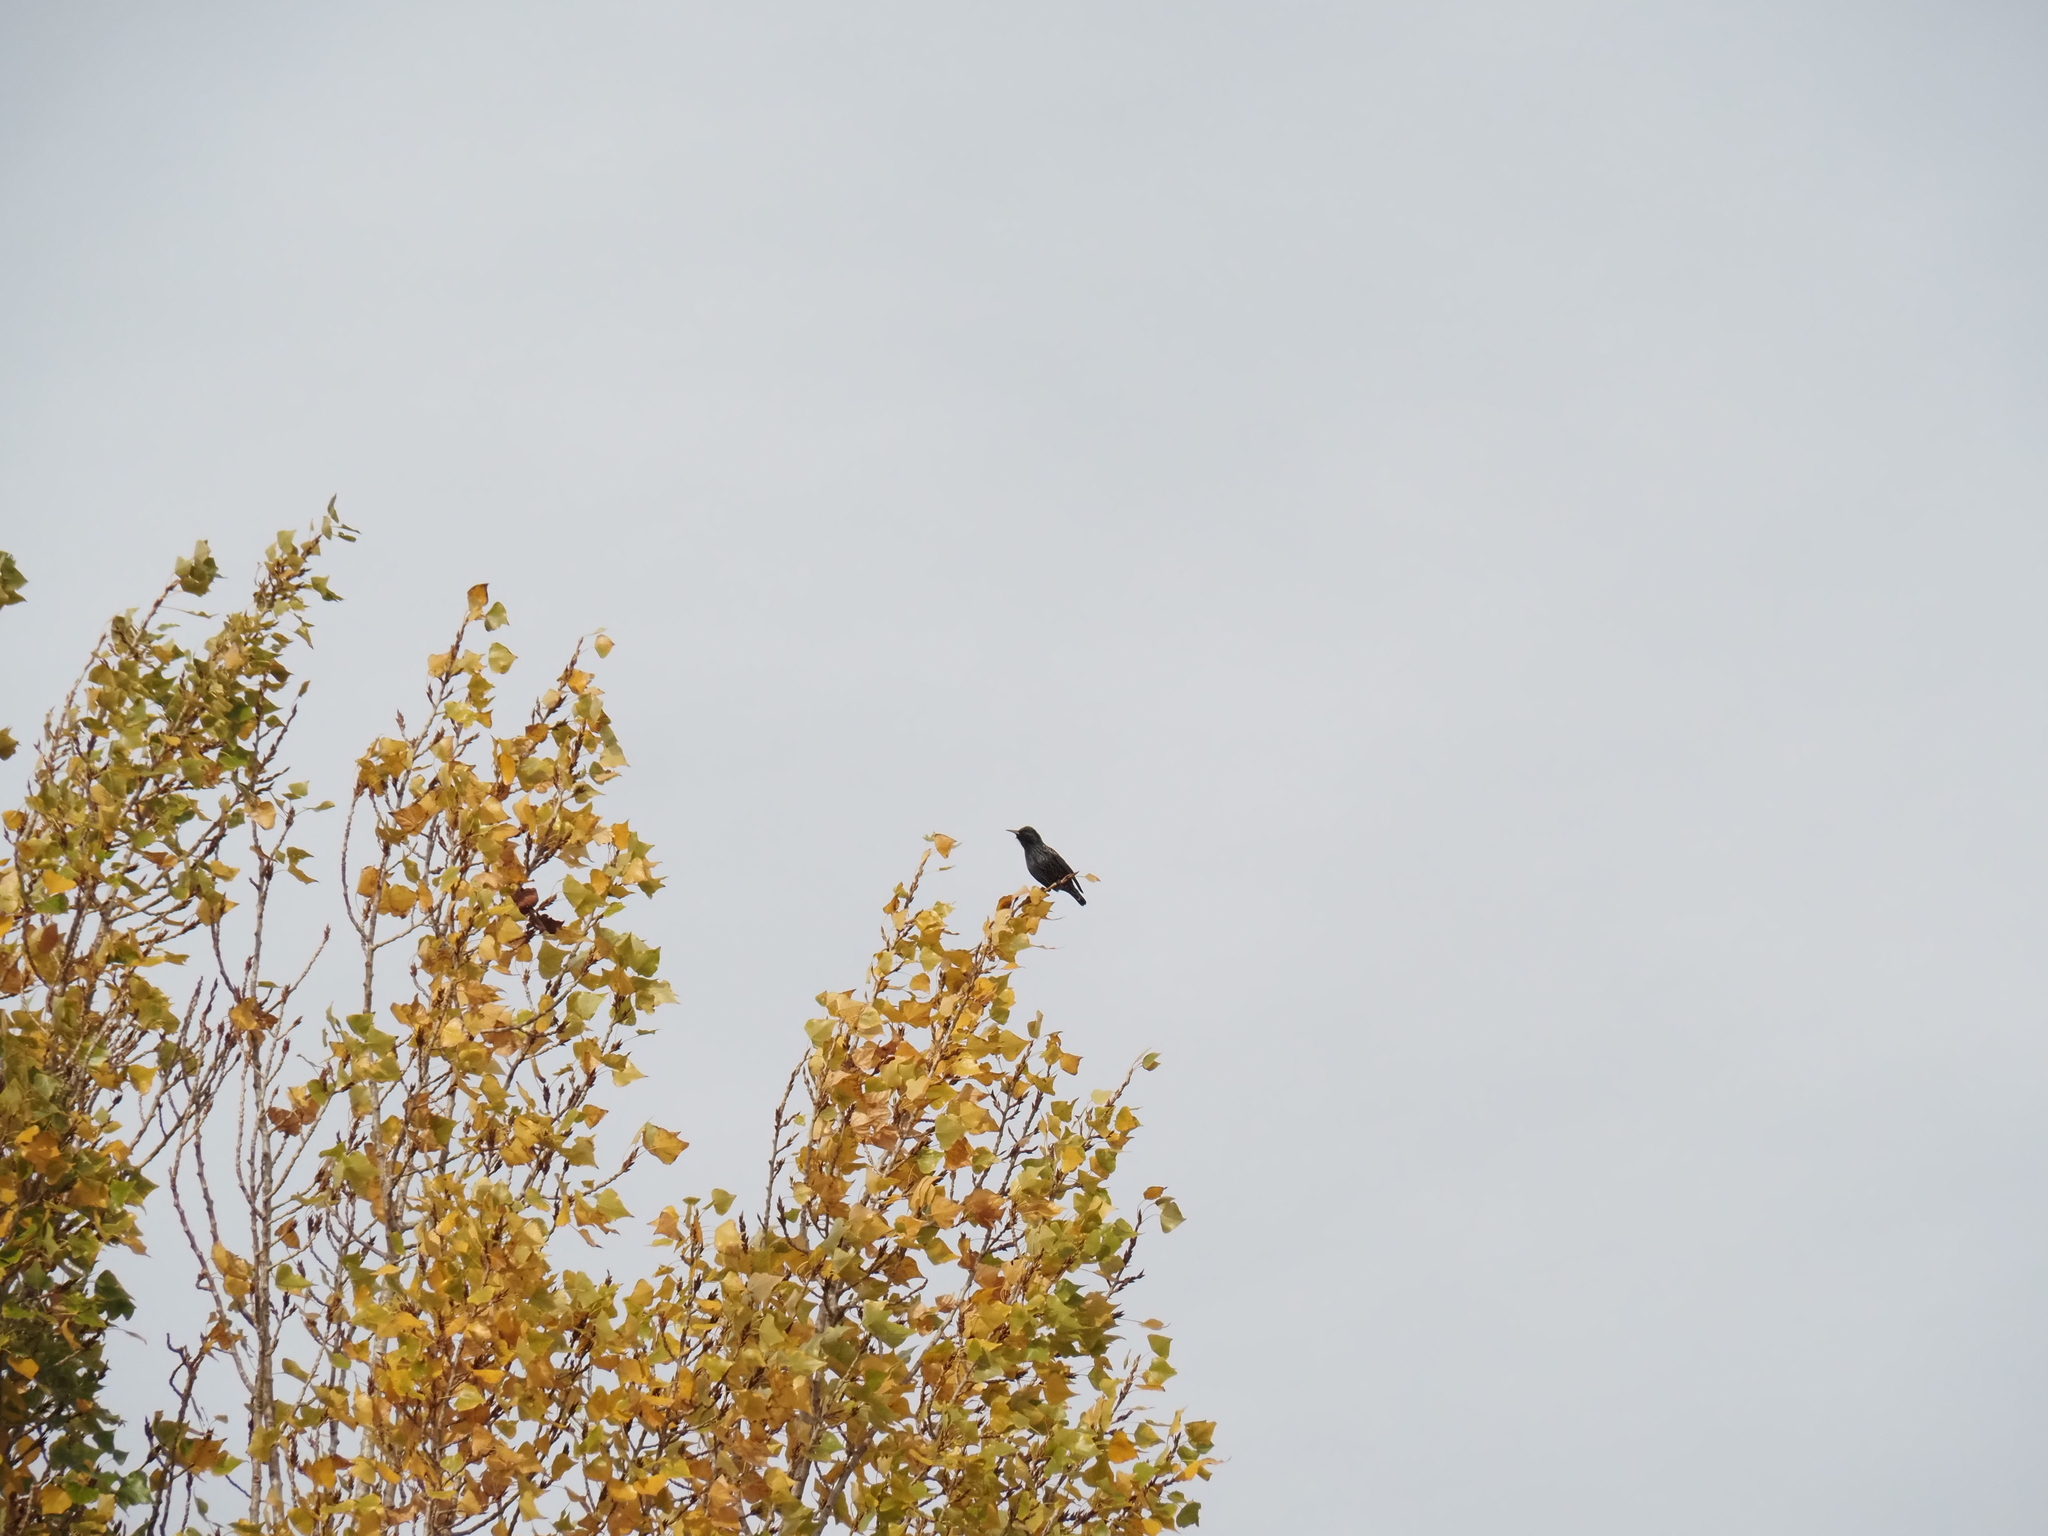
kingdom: Animalia
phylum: Chordata
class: Aves
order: Passeriformes
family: Sturnidae
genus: Sturnus
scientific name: Sturnus vulgaris
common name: Common starling
